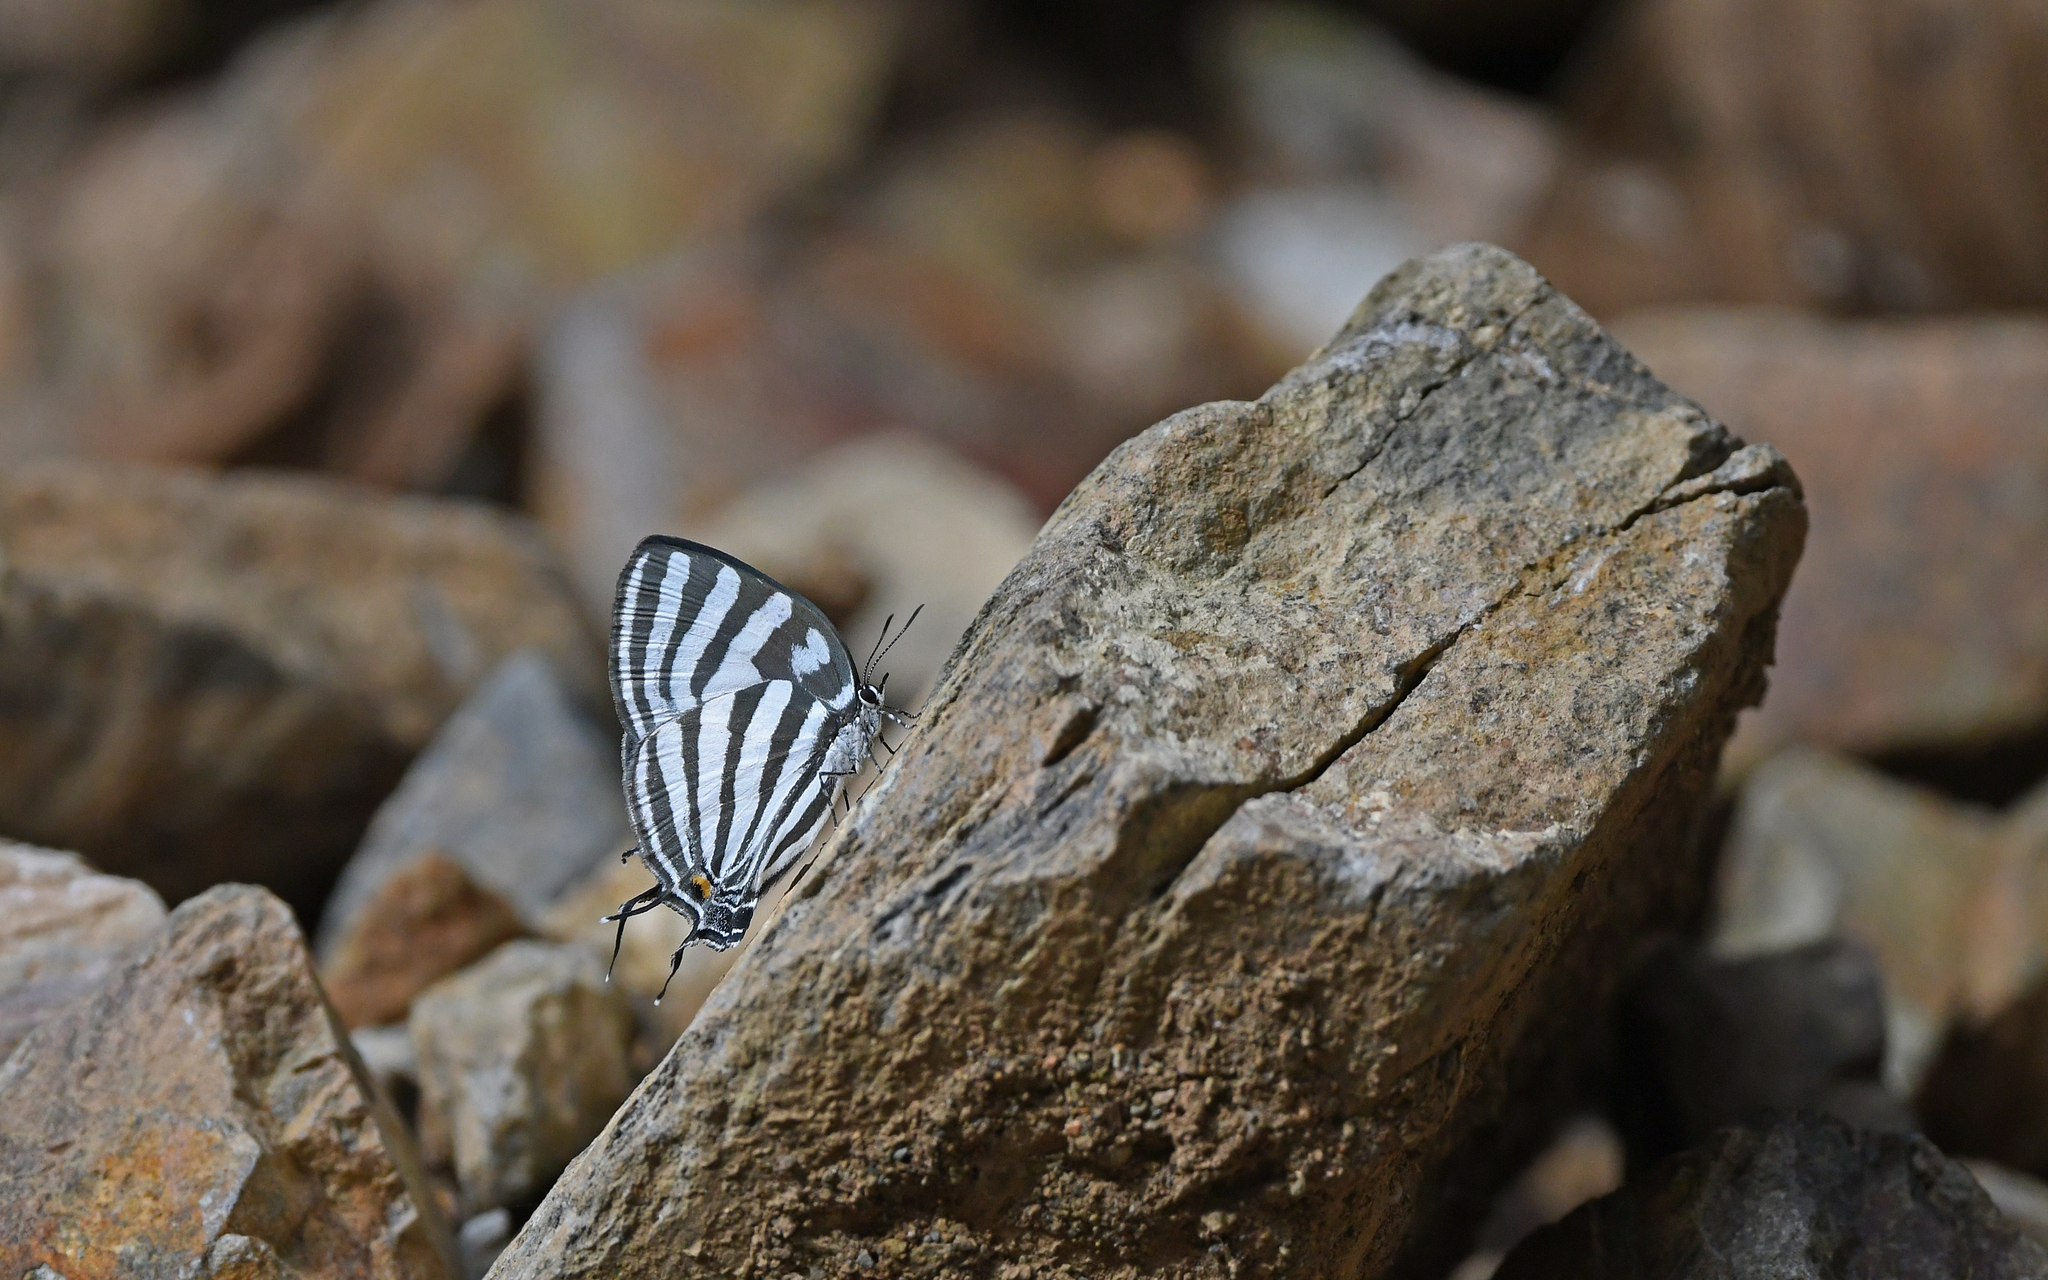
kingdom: Animalia
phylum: Arthropoda
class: Insecta
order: Lepidoptera
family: Lycaenidae
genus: Laothus
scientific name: Laothus gibberosa
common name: Great stripestreak
